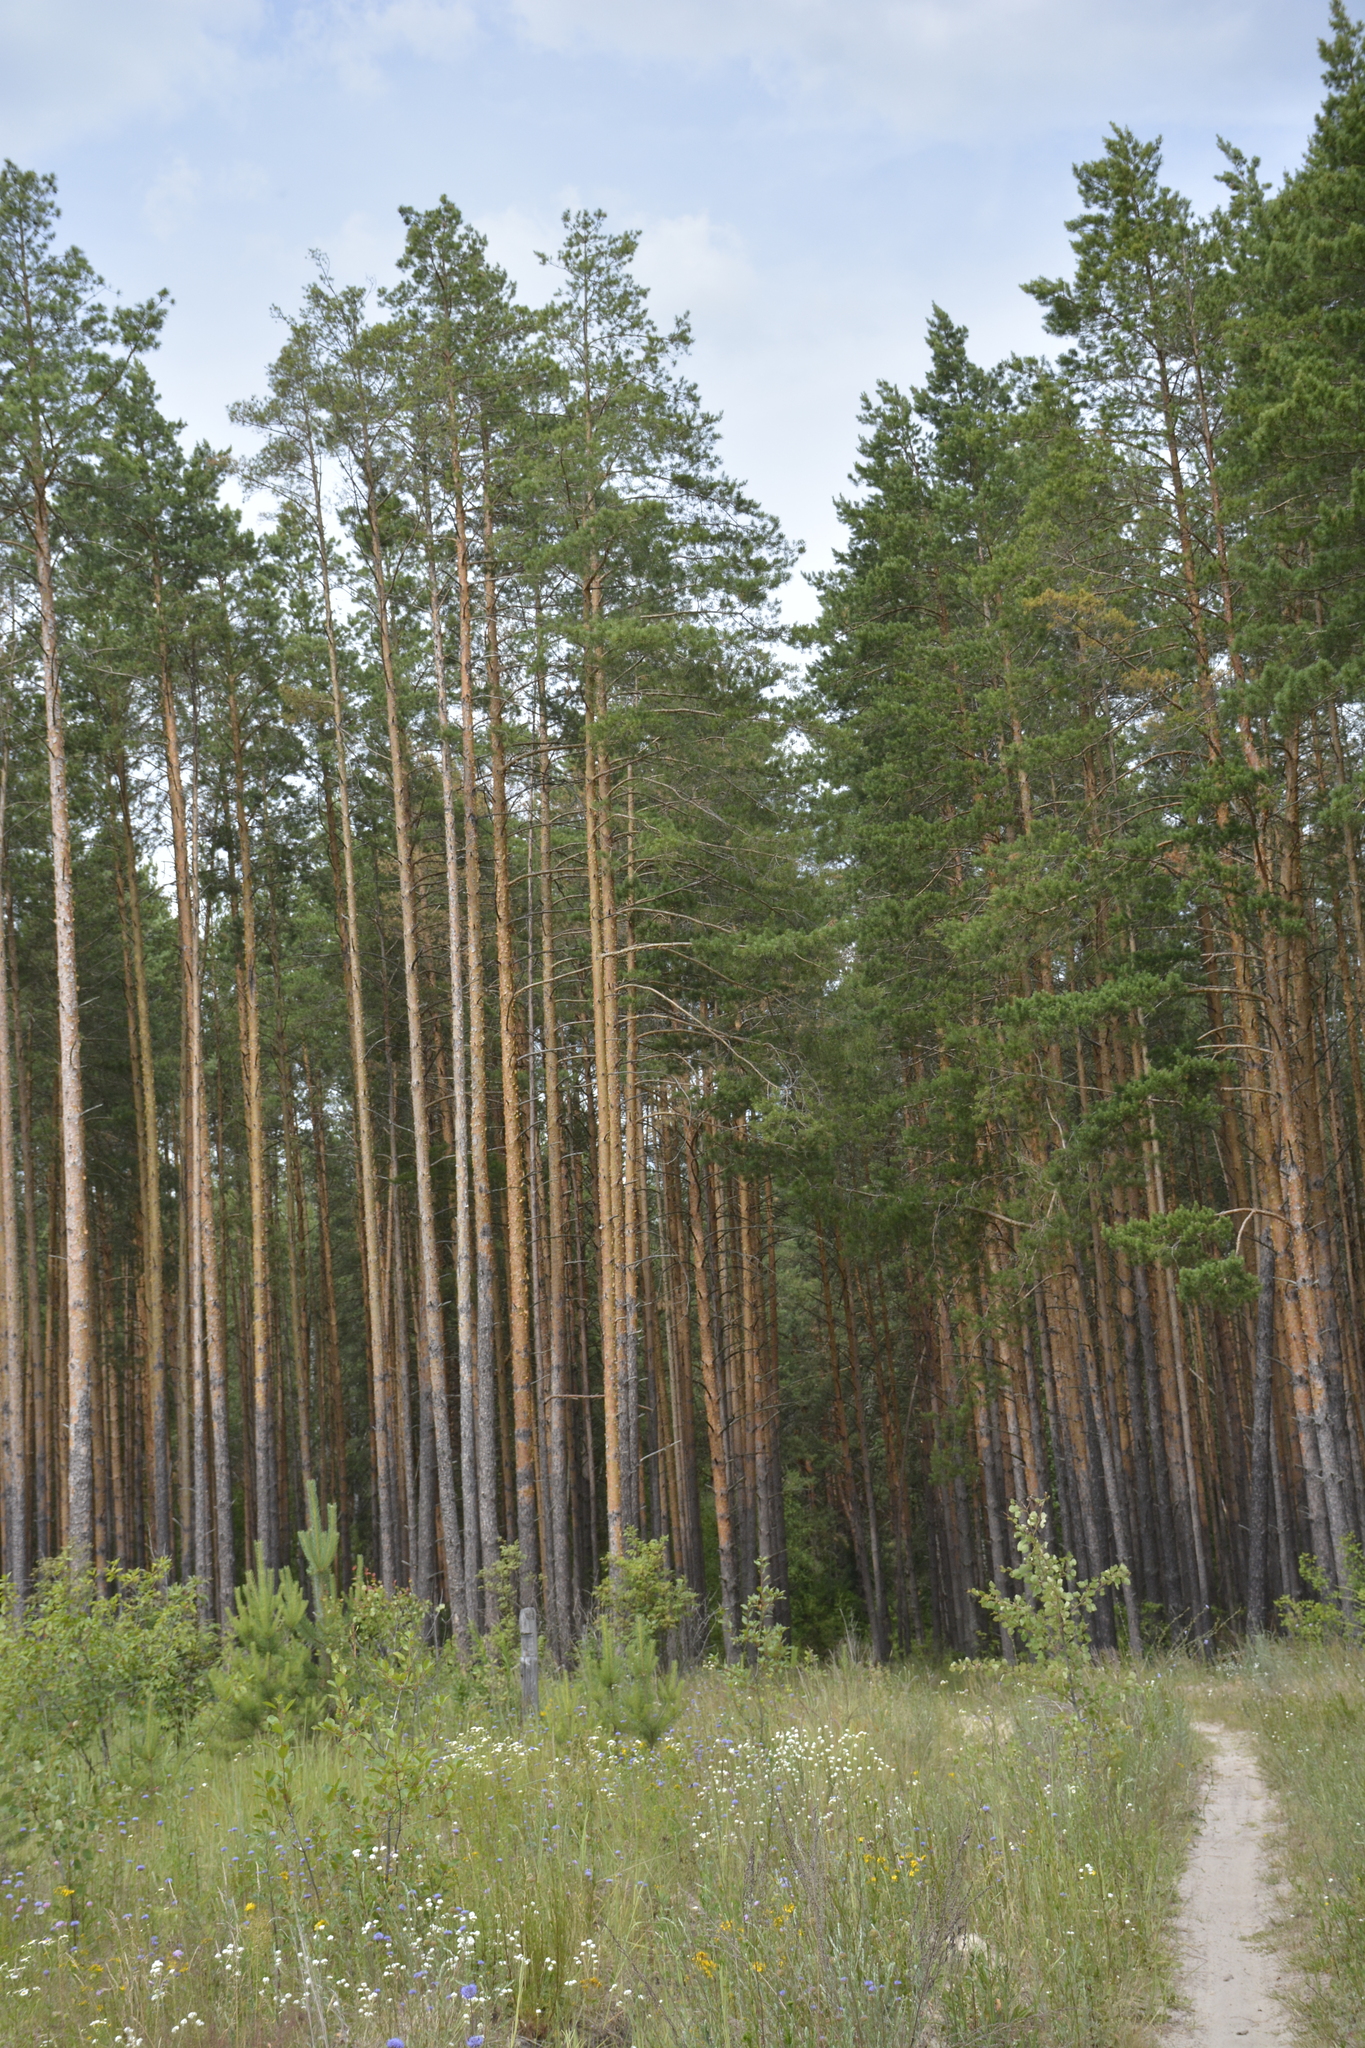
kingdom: Plantae
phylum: Tracheophyta
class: Pinopsida
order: Pinales
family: Pinaceae
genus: Pinus
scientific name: Pinus sylvestris
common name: Scots pine
